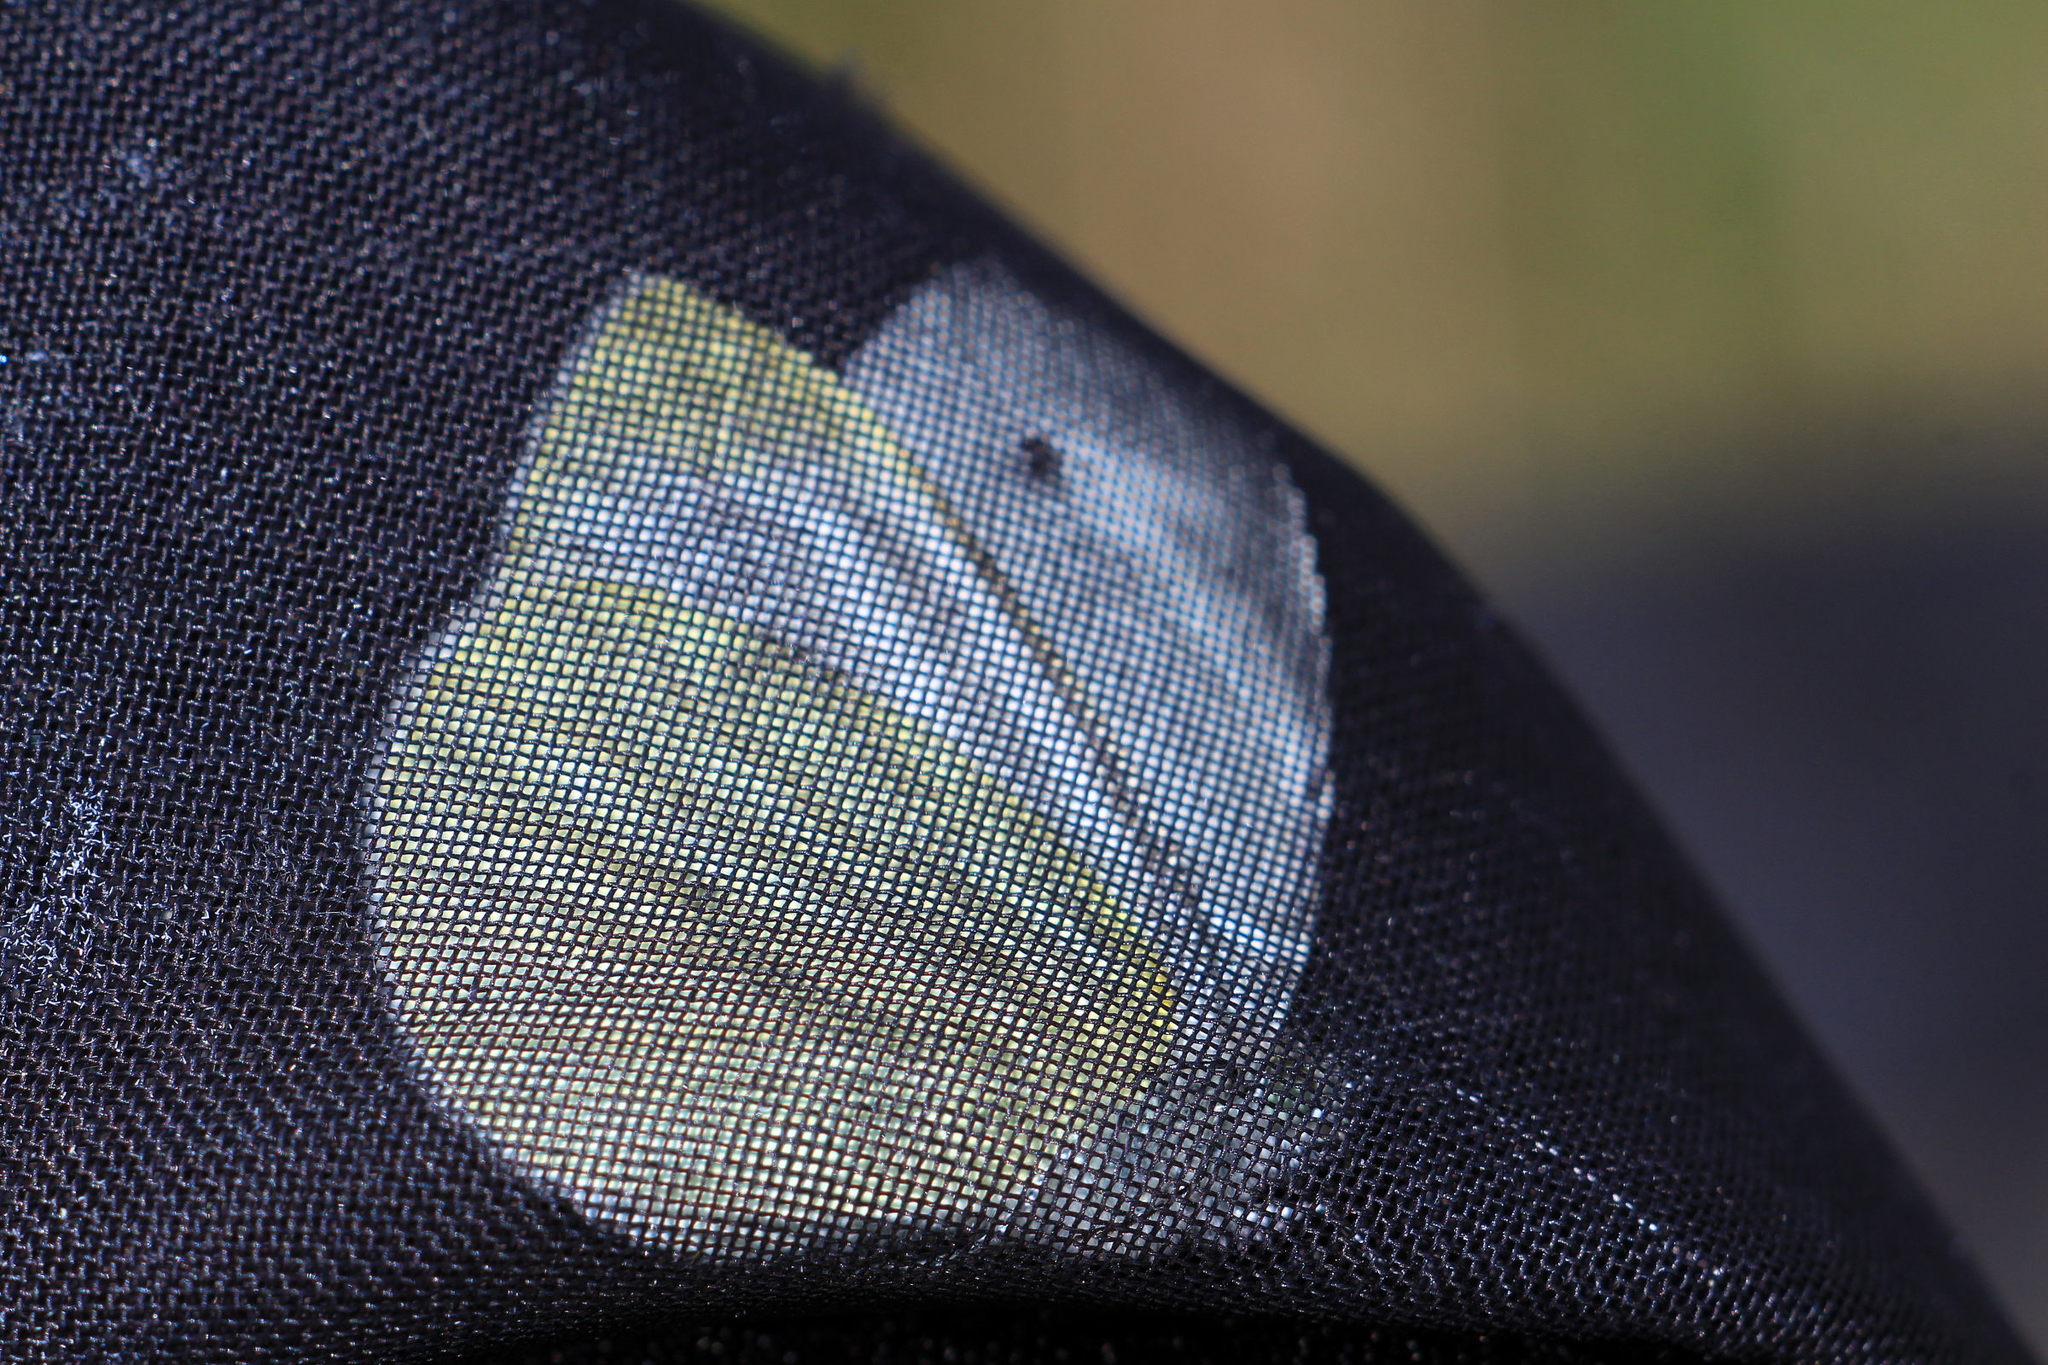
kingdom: Animalia
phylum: Arthropoda
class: Insecta
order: Lepidoptera
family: Pieridae
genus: Pieris
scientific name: Pieris napi
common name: Green-veined white
